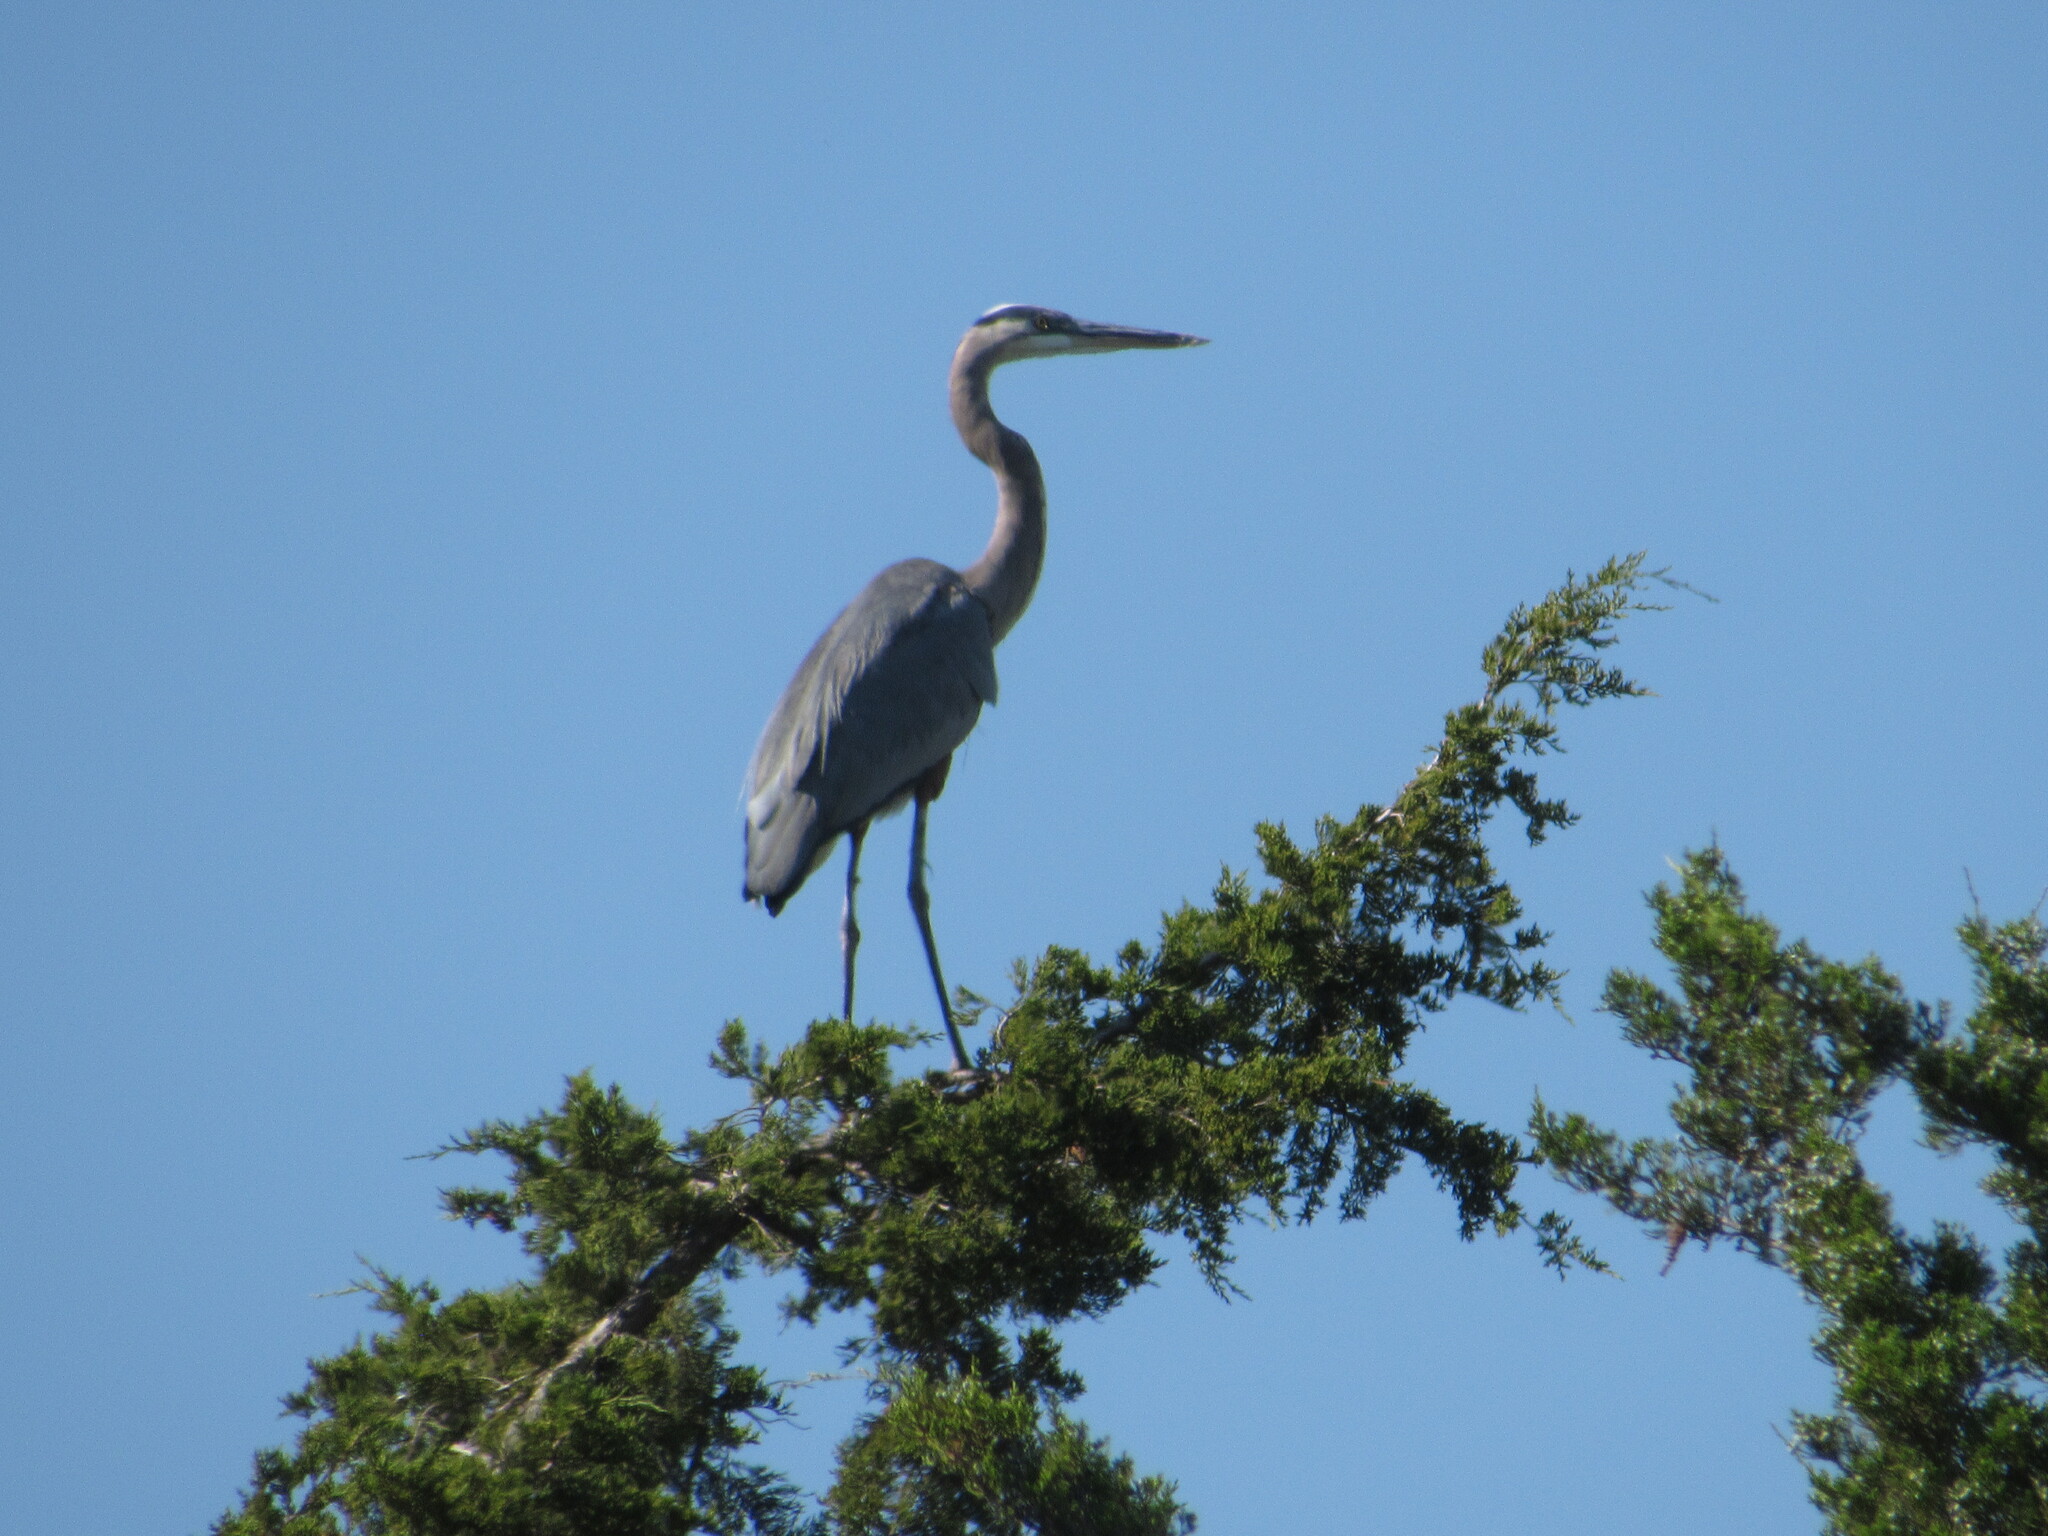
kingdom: Animalia
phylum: Chordata
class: Aves
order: Pelecaniformes
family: Ardeidae
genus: Ardea
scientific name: Ardea herodias
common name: Great blue heron
